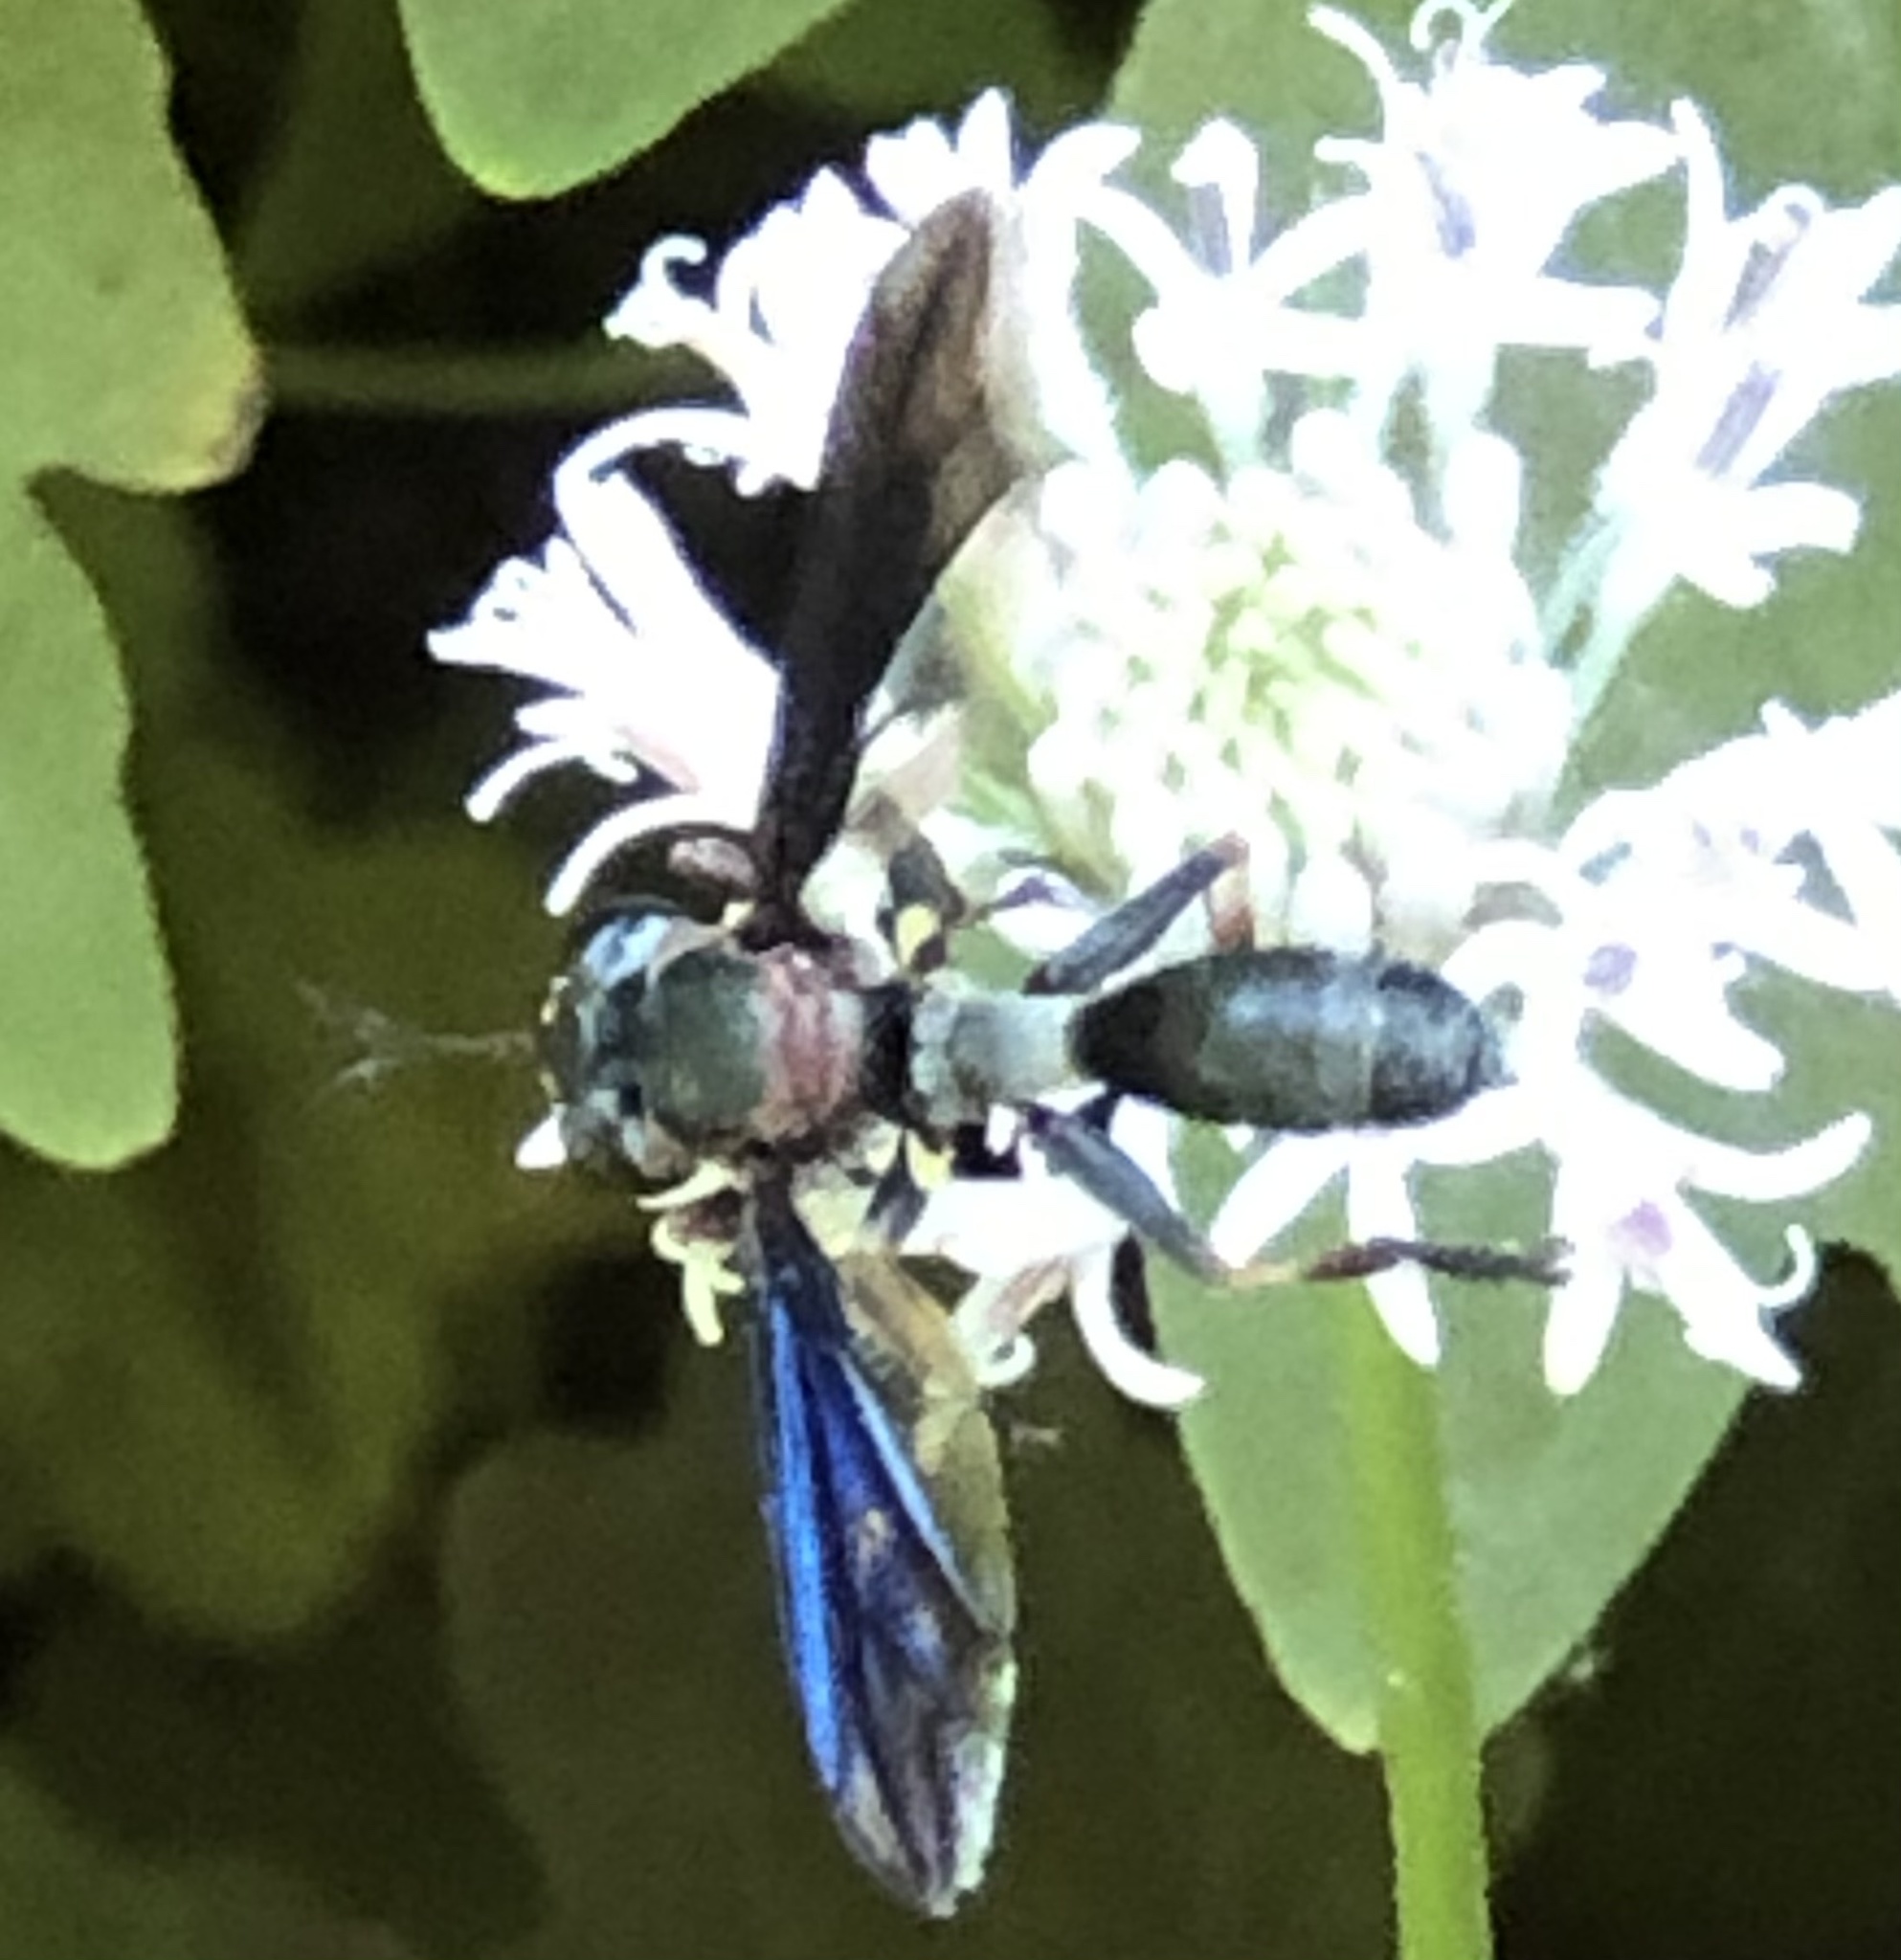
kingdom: Animalia
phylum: Arthropoda
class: Insecta
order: Diptera
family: Conopidae
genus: Physocephala
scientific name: Physocephala floridana
